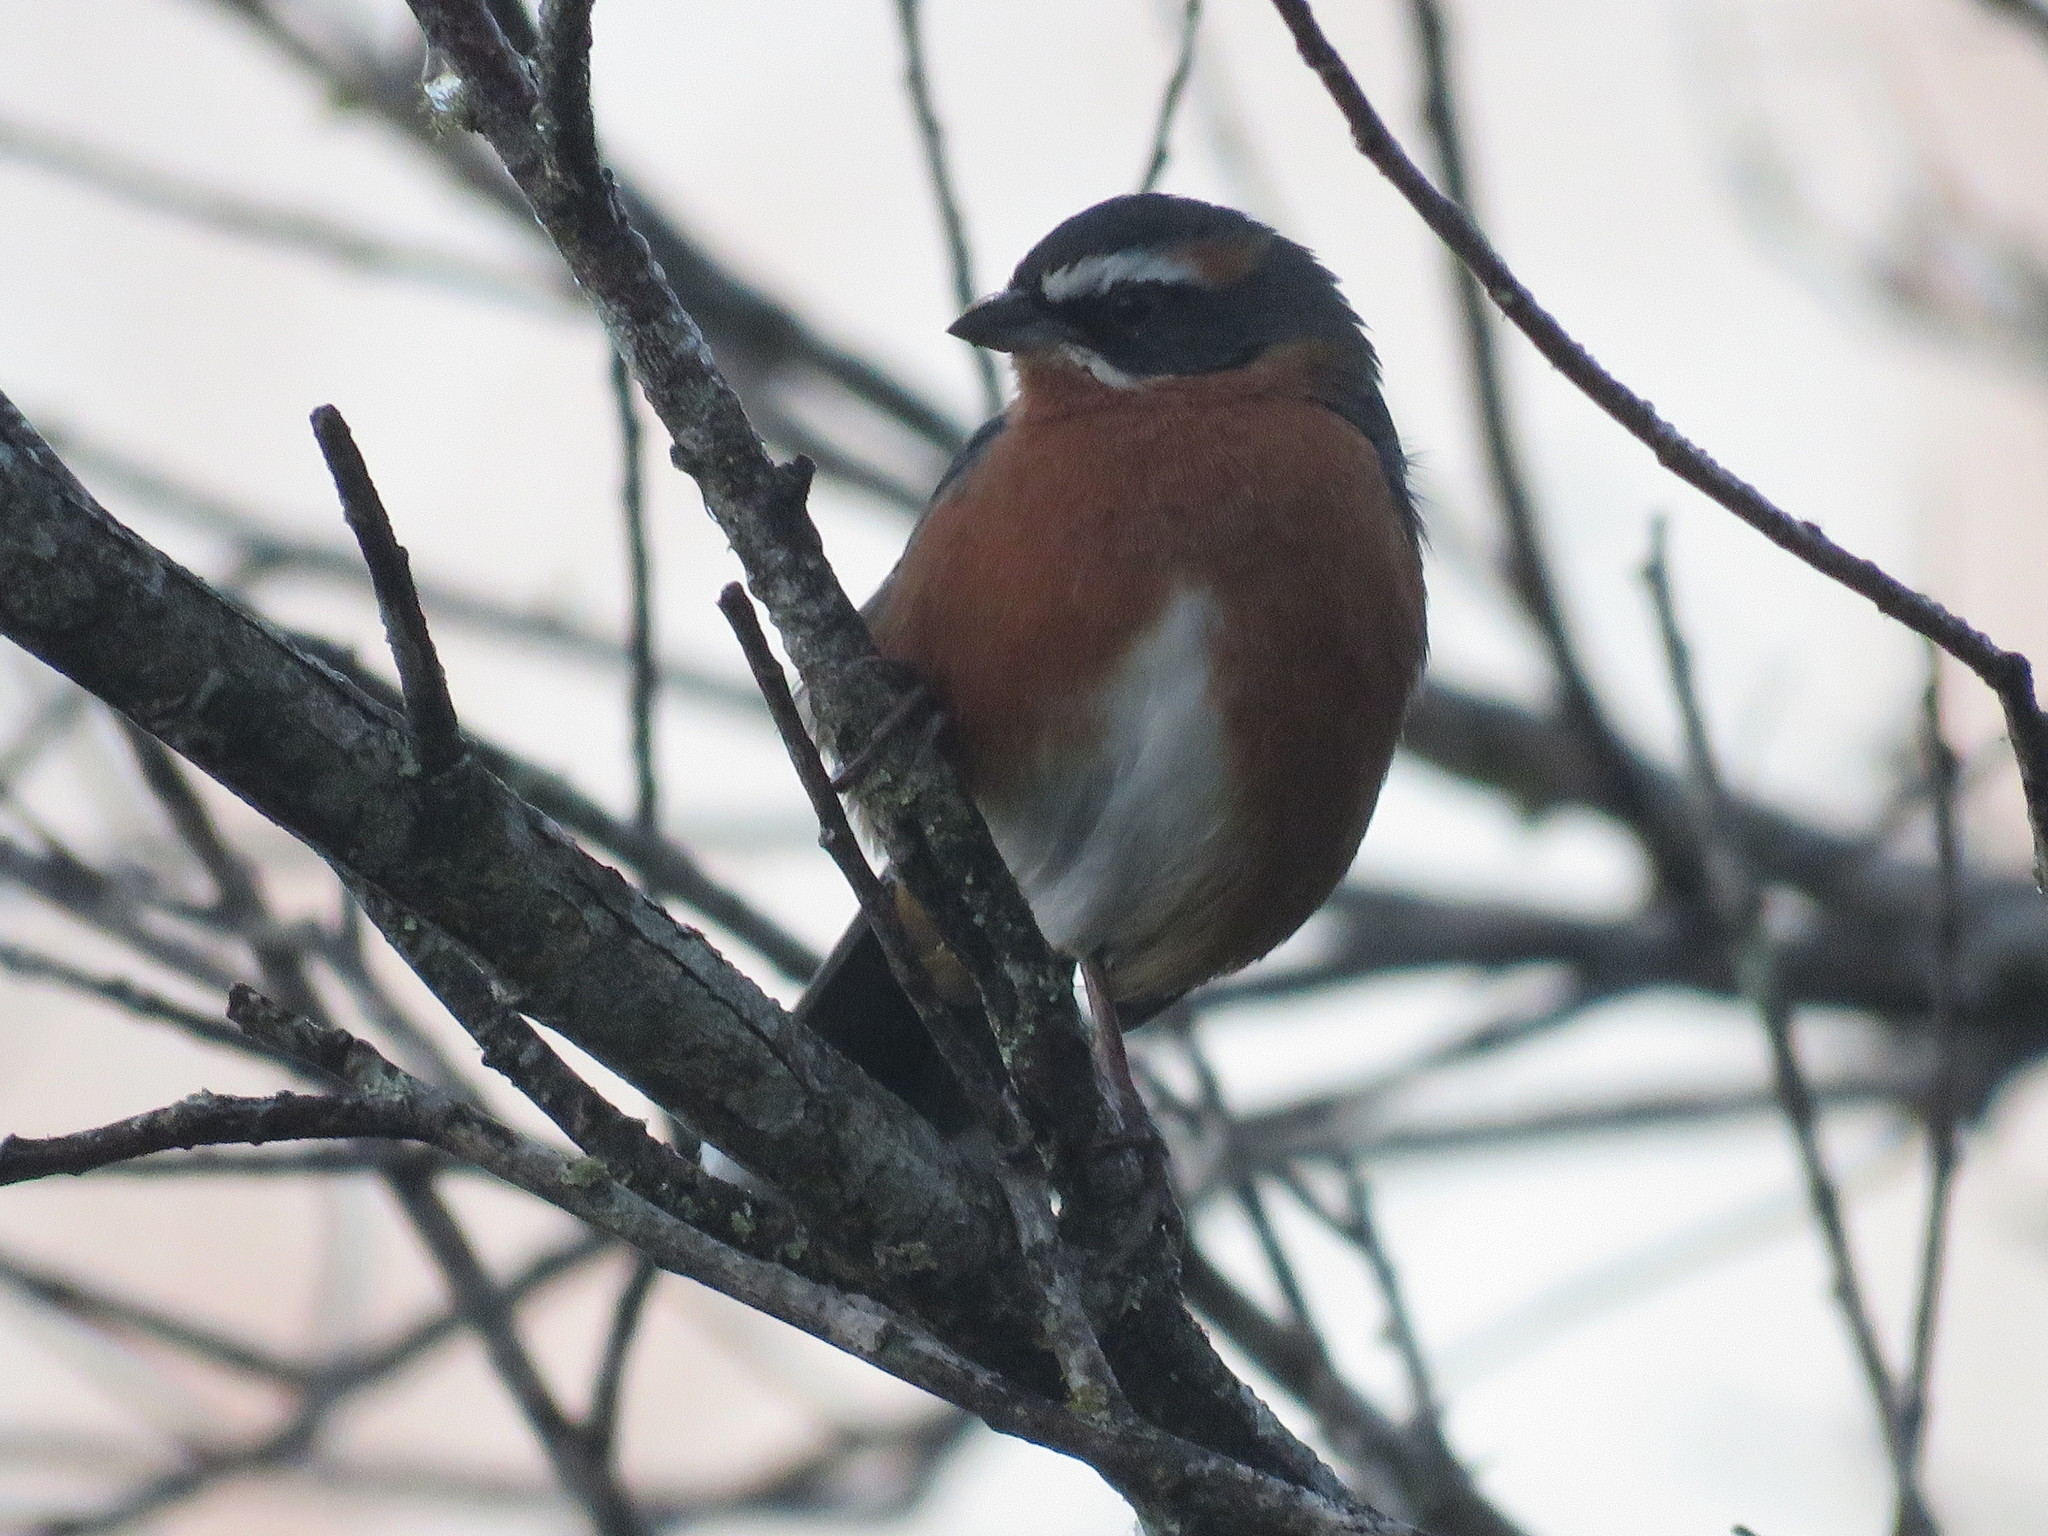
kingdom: Animalia
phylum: Chordata
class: Aves
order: Passeriformes
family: Thraupidae
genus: Poospiza
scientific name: Poospiza nigrorufa
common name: Black-and-rufous warbling finch
